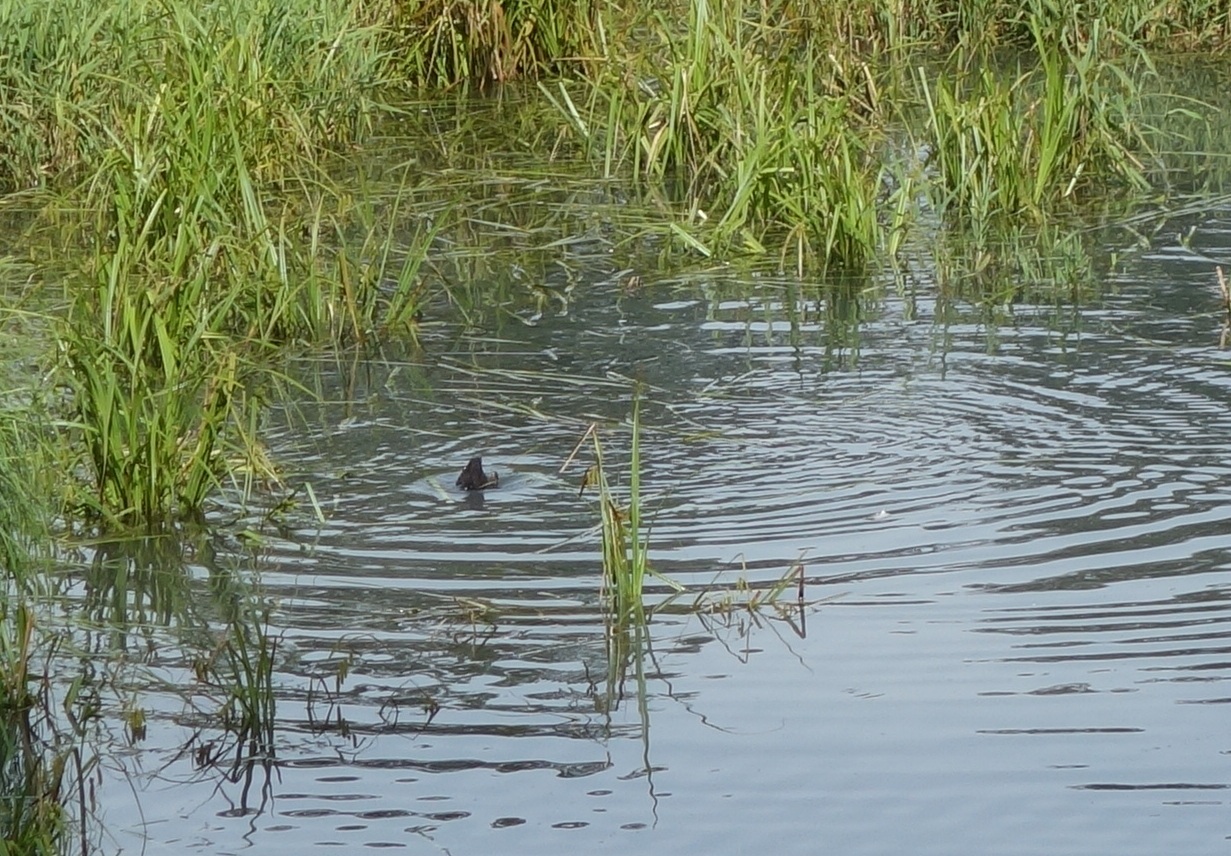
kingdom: Animalia
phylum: Chordata
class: Aves
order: Gruiformes
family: Rallidae
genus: Fulica
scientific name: Fulica atra
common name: Eurasian coot
